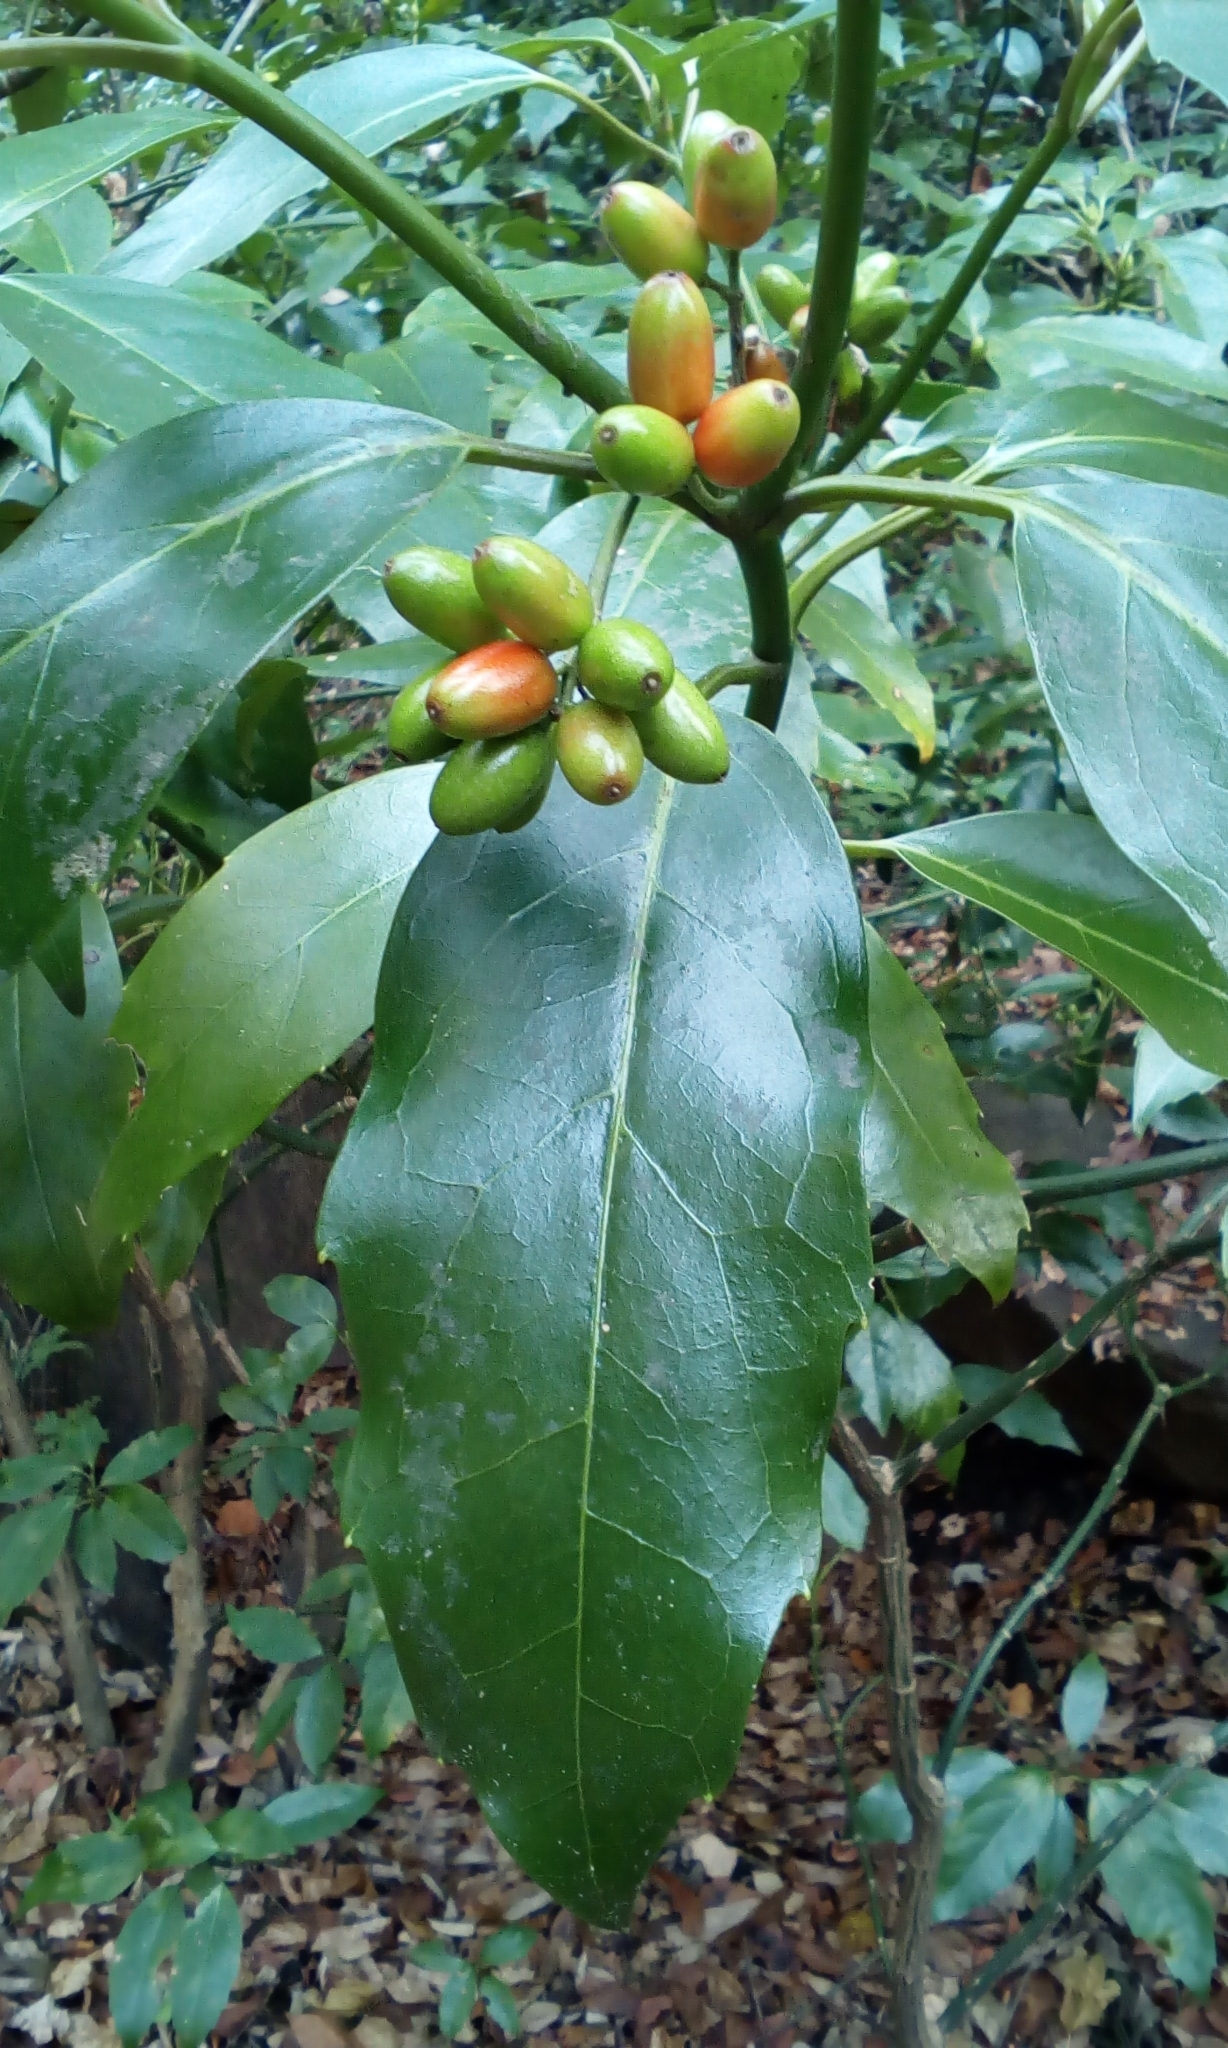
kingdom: Plantae
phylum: Tracheophyta
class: Magnoliopsida
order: Garryales
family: Garryaceae
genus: Aucuba
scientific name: Aucuba japonica
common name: Spotted-laurel
